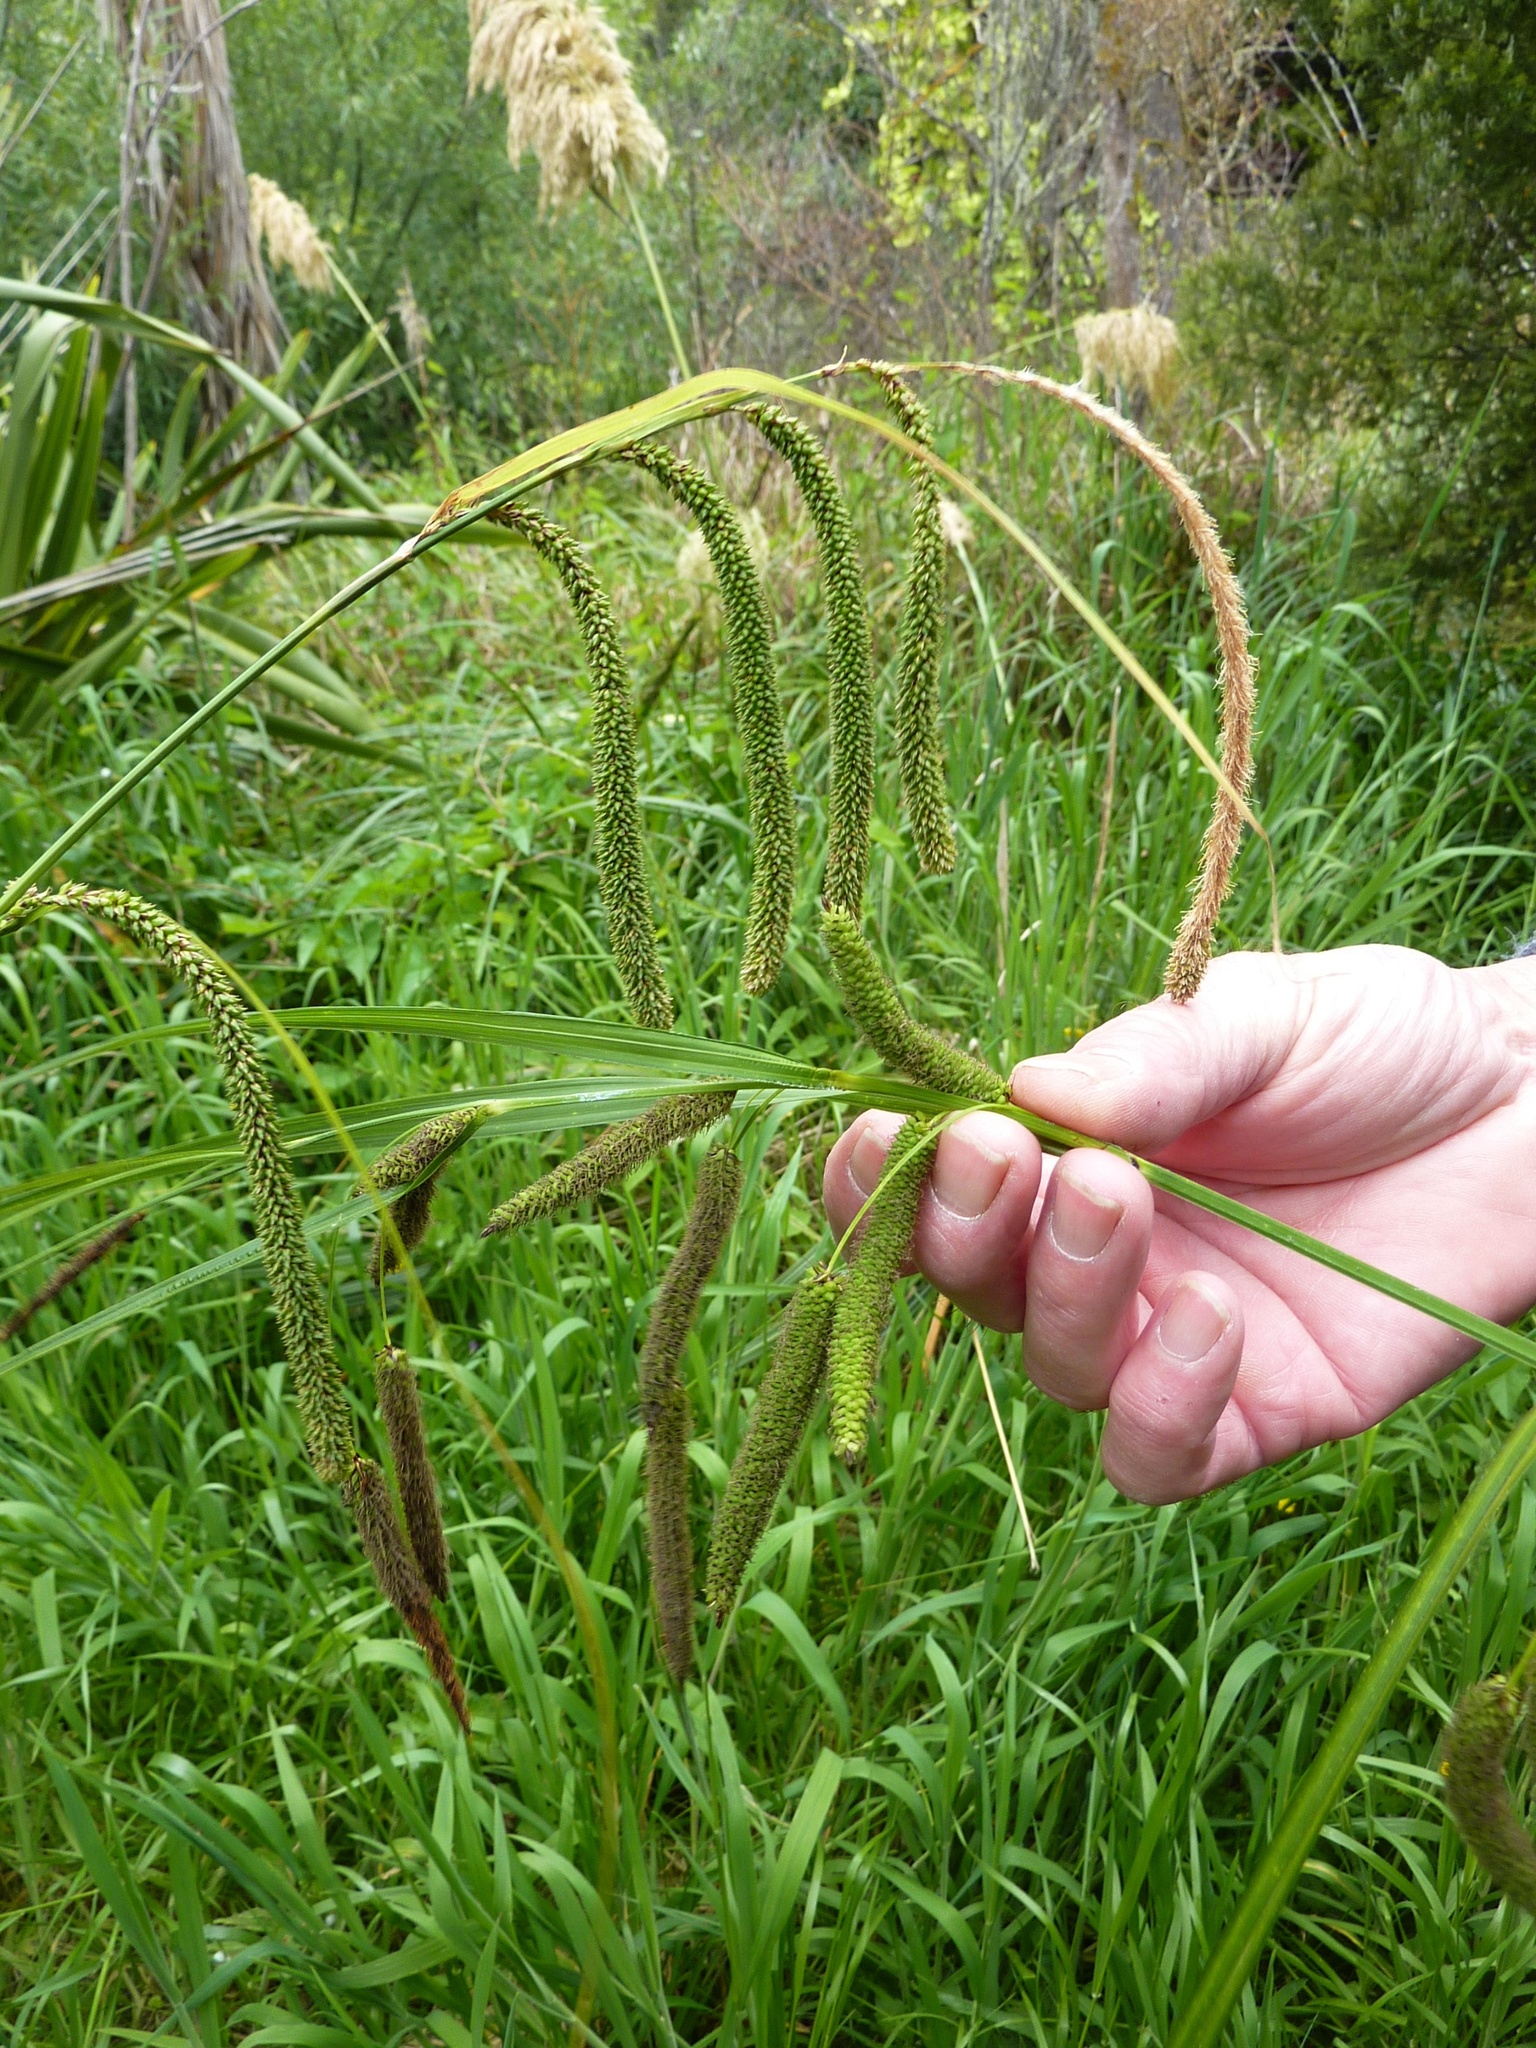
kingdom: Plantae
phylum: Tracheophyta
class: Liliopsida
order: Poales
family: Cyperaceae
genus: Carex
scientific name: Carex pendula
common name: Pendulous sedge
